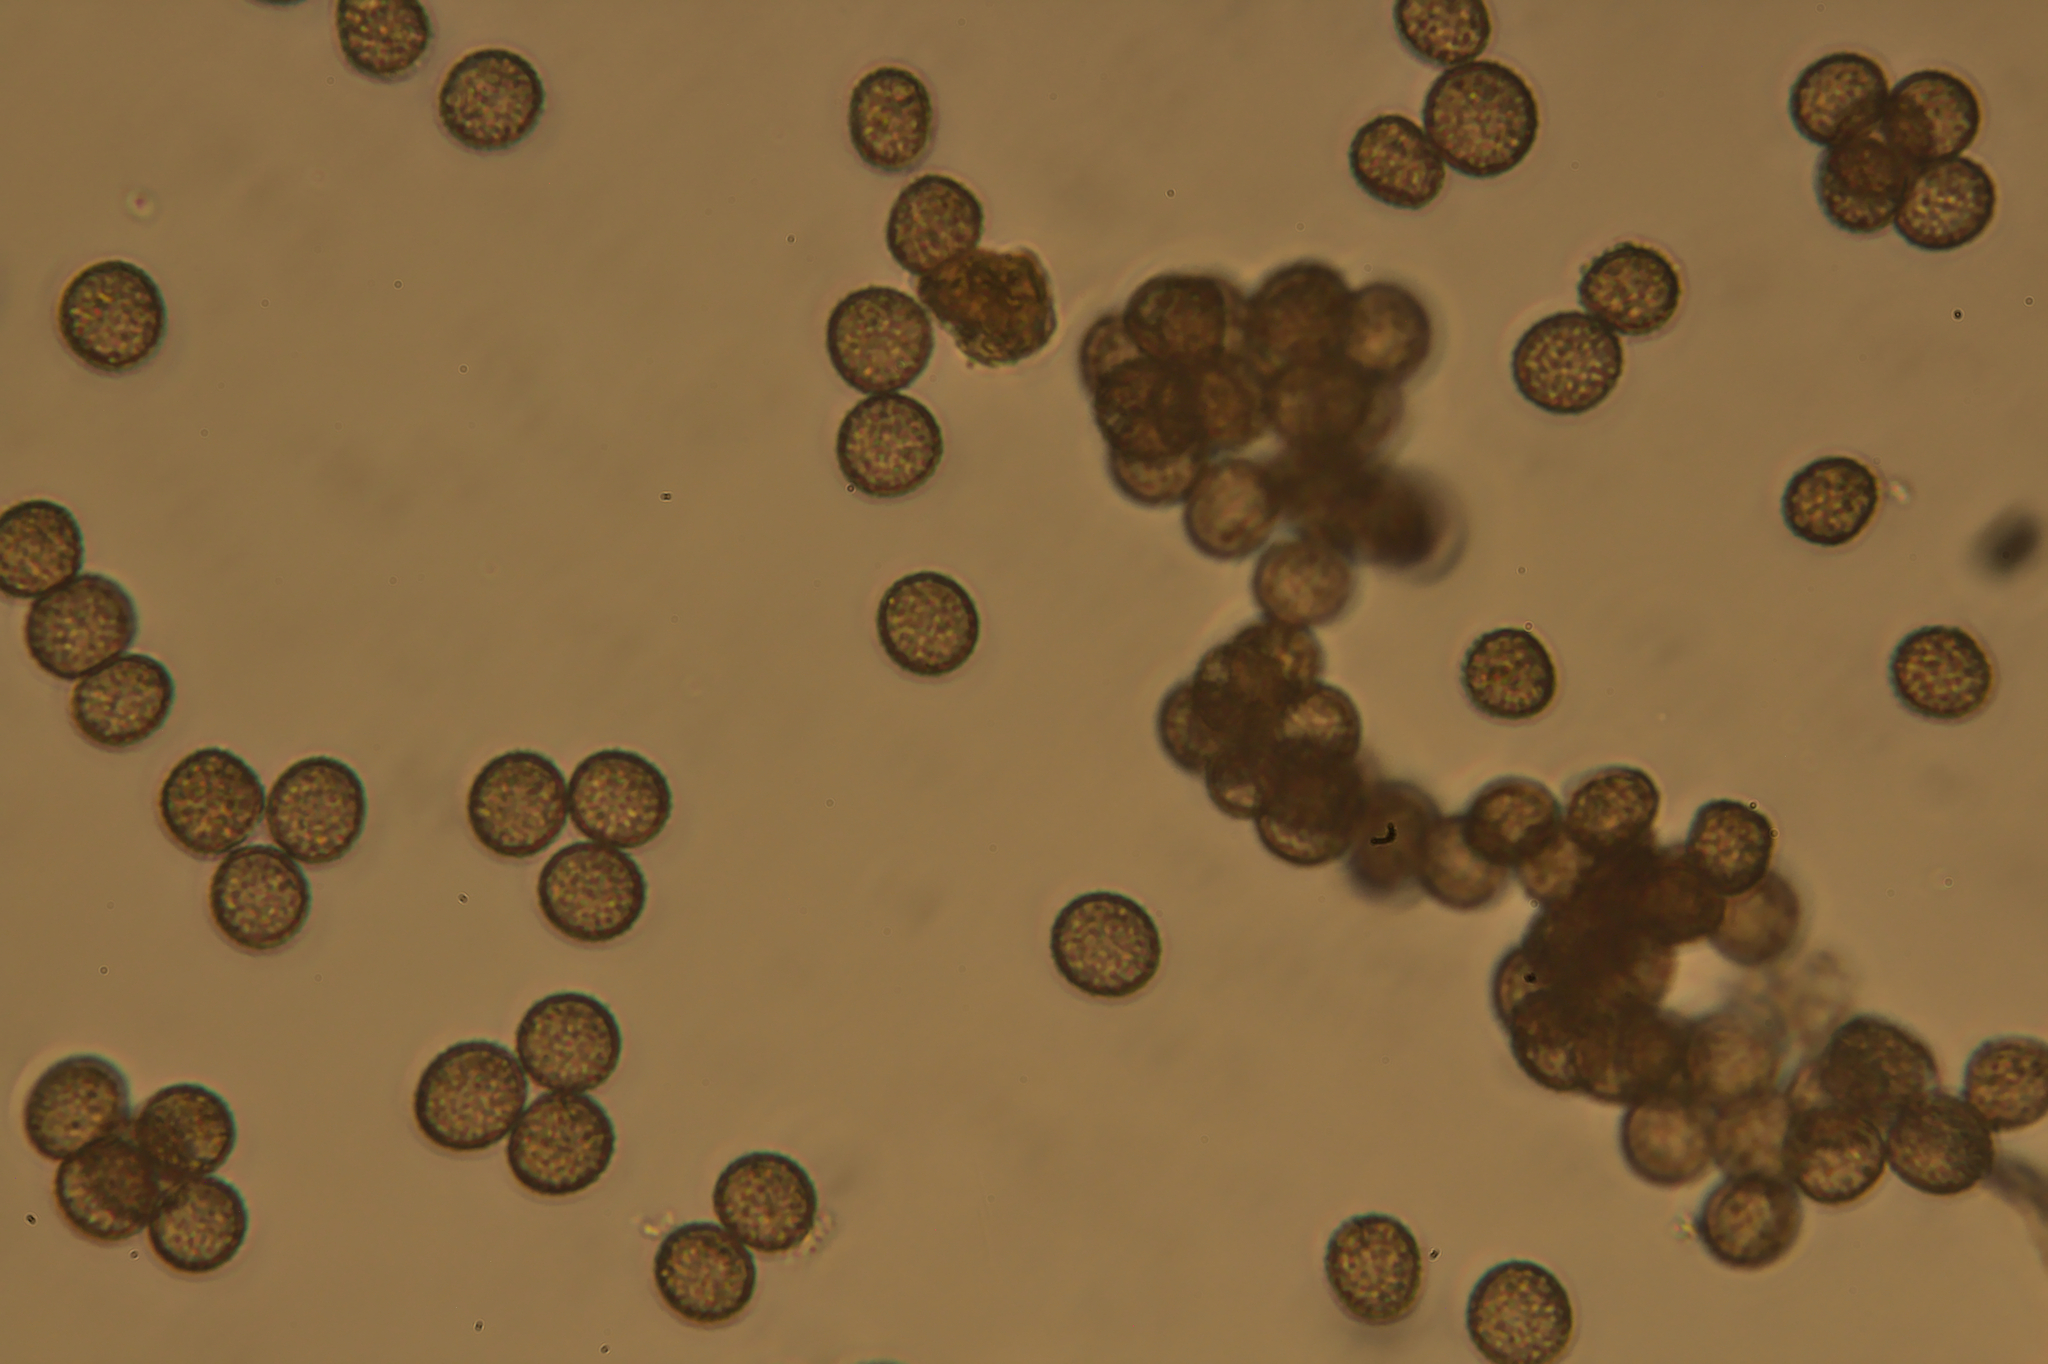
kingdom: Protozoa
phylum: Mycetozoa
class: Myxomycetes
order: Physarales
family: Physaraceae
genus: Badhamia
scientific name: Badhamia utricularis
